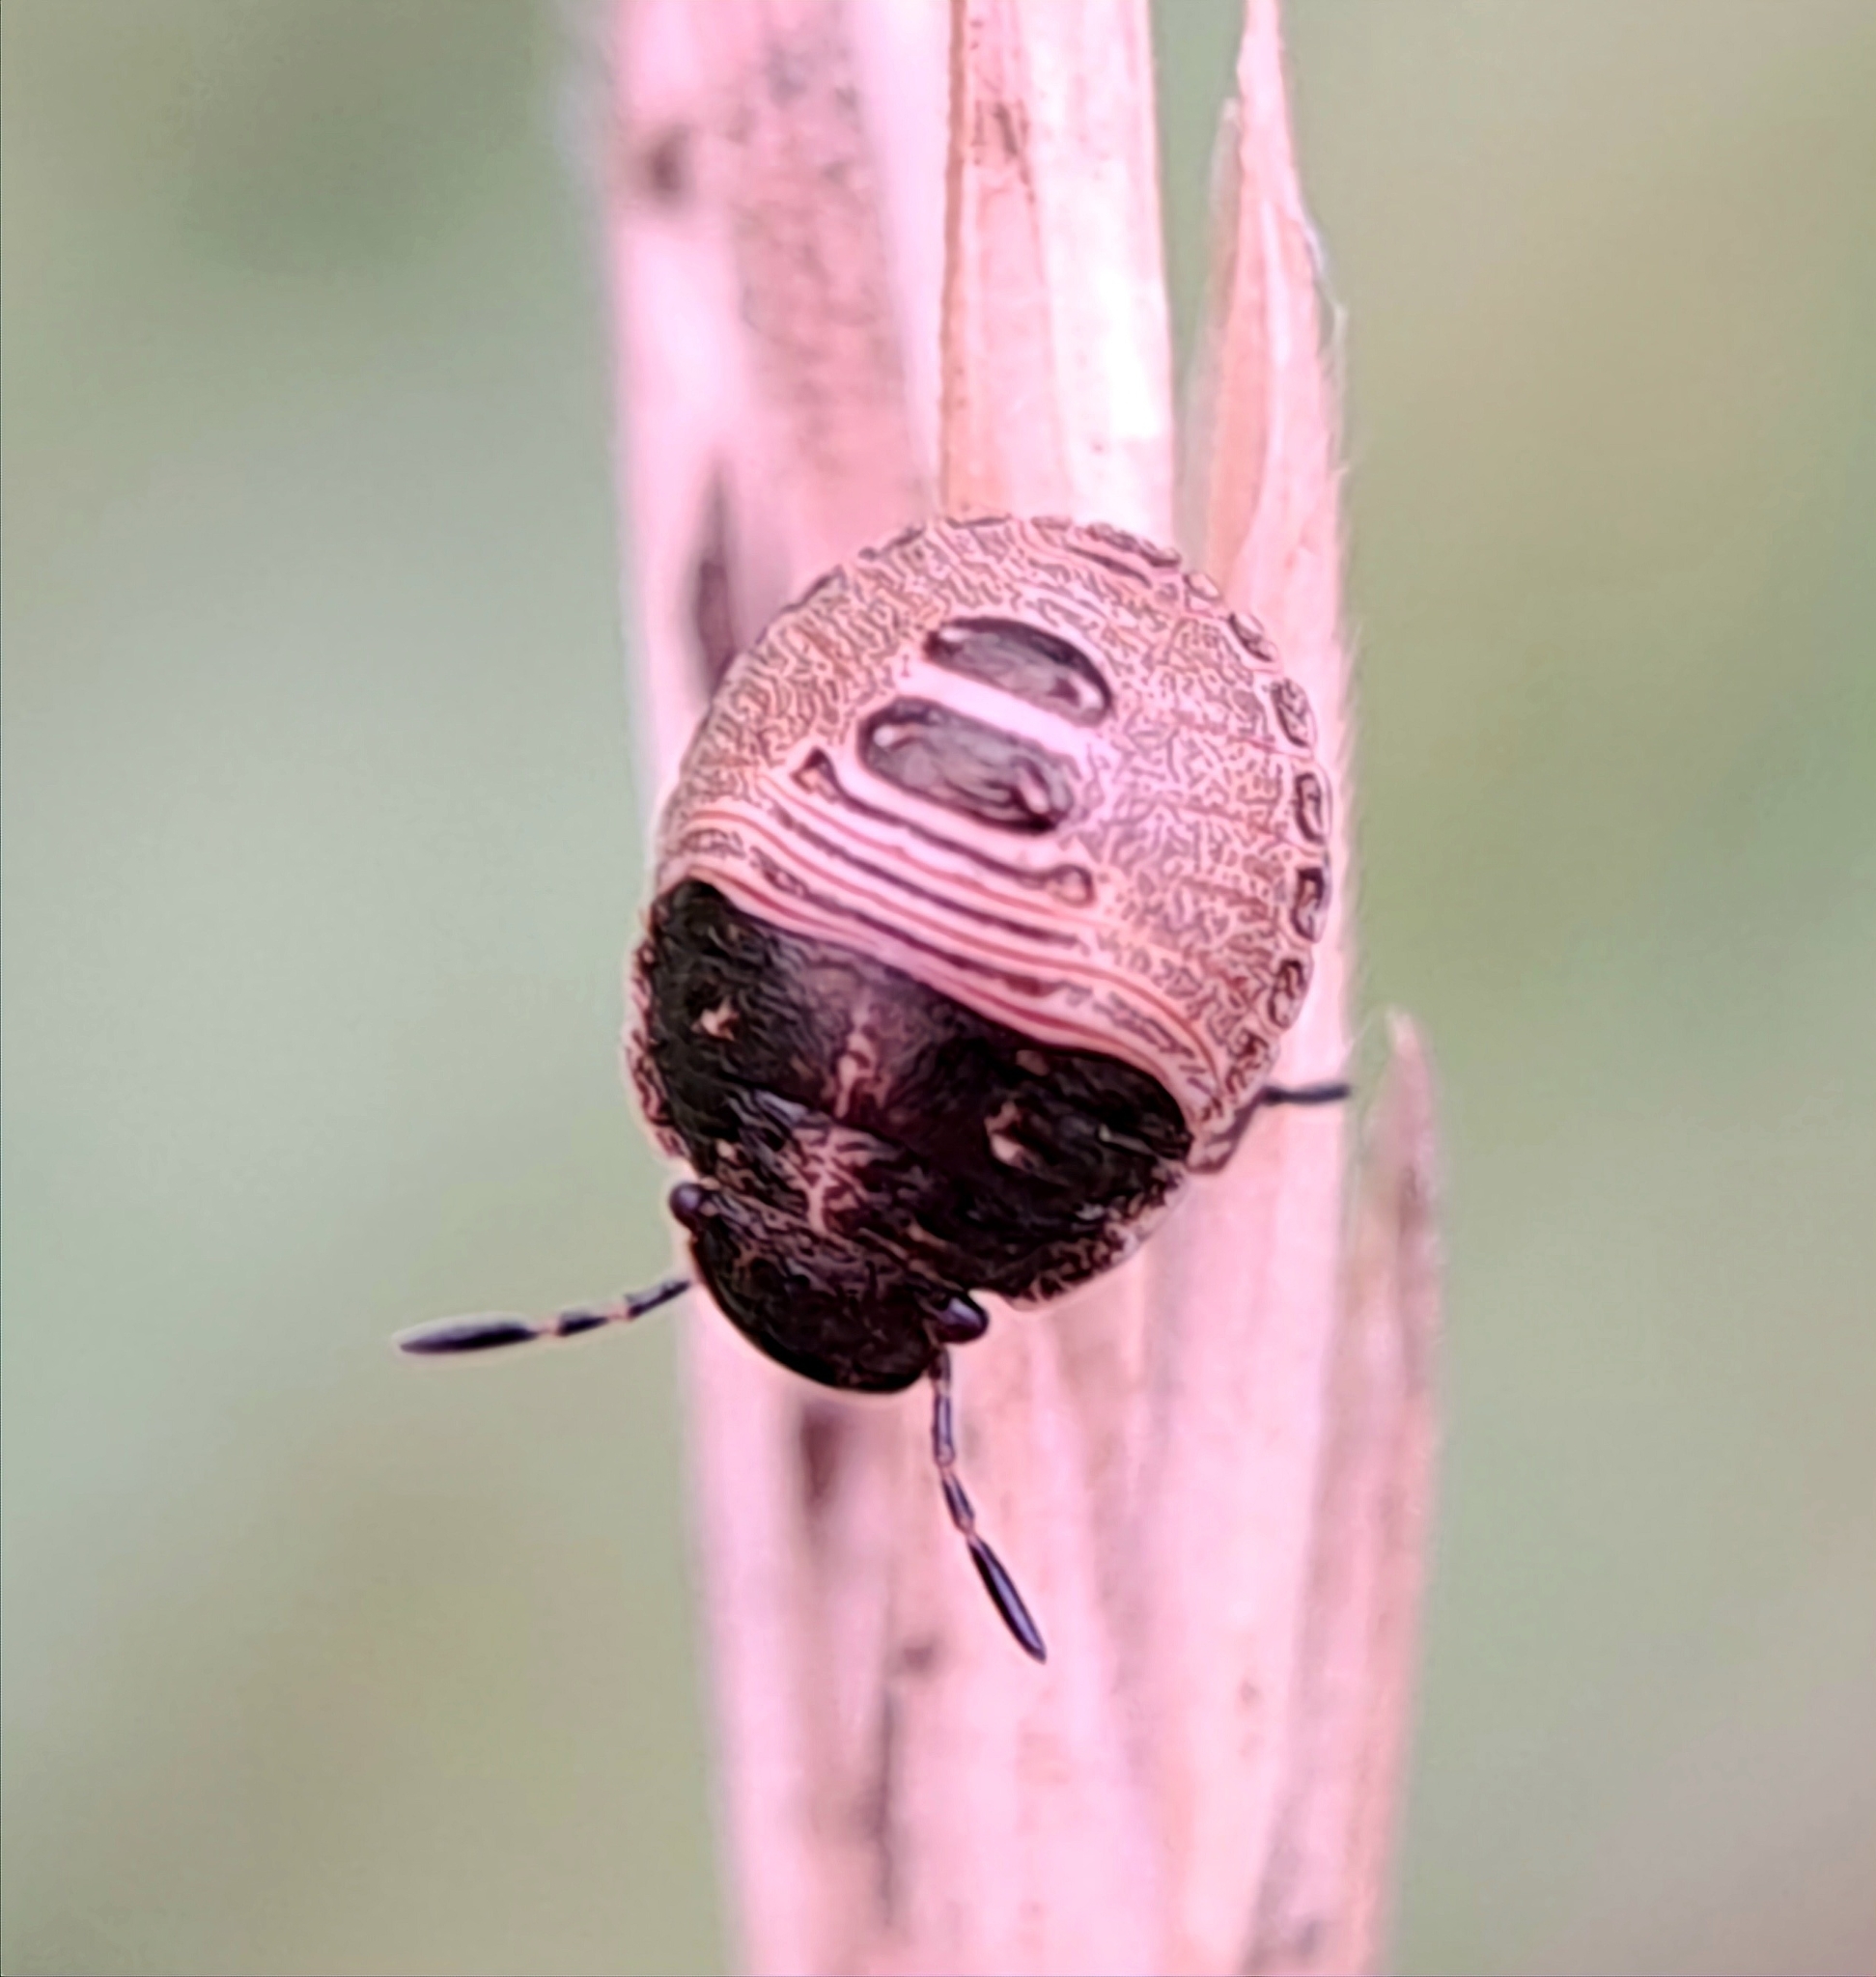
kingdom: Animalia
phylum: Arthropoda
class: Insecta
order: Hemiptera
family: Scutelleridae
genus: Eurygaster
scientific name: Eurygaster testudinaria
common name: Tortoise bug
